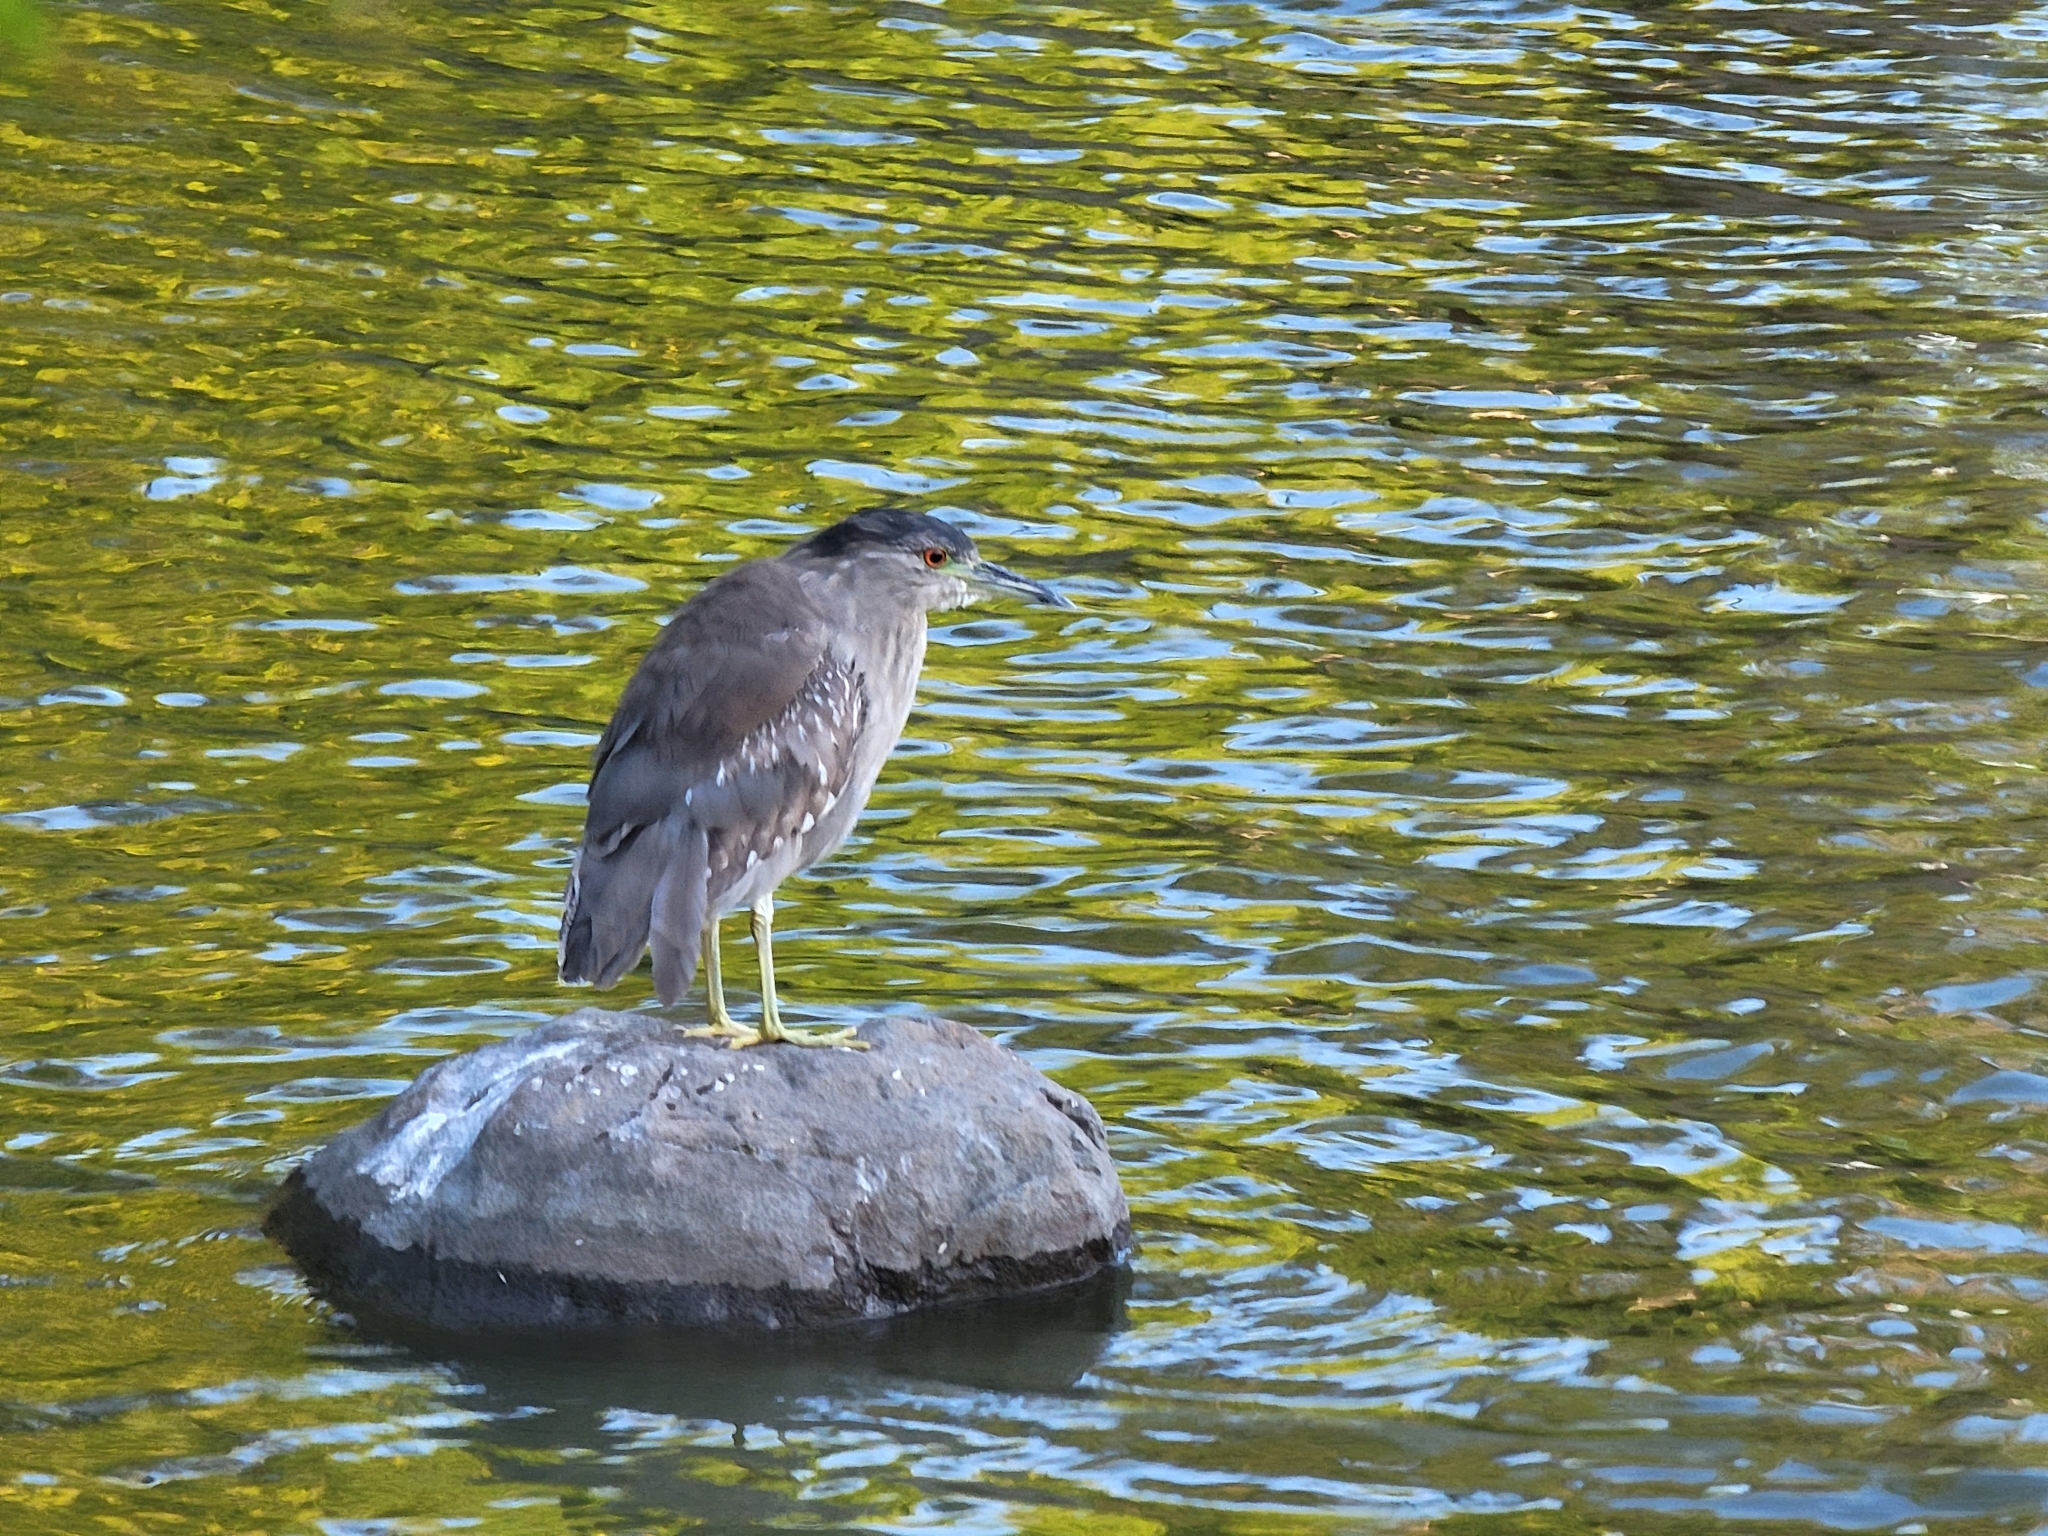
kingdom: Animalia
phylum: Chordata
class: Aves
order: Pelecaniformes
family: Ardeidae
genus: Nycticorax
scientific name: Nycticorax nycticorax
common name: Black-crowned night heron
